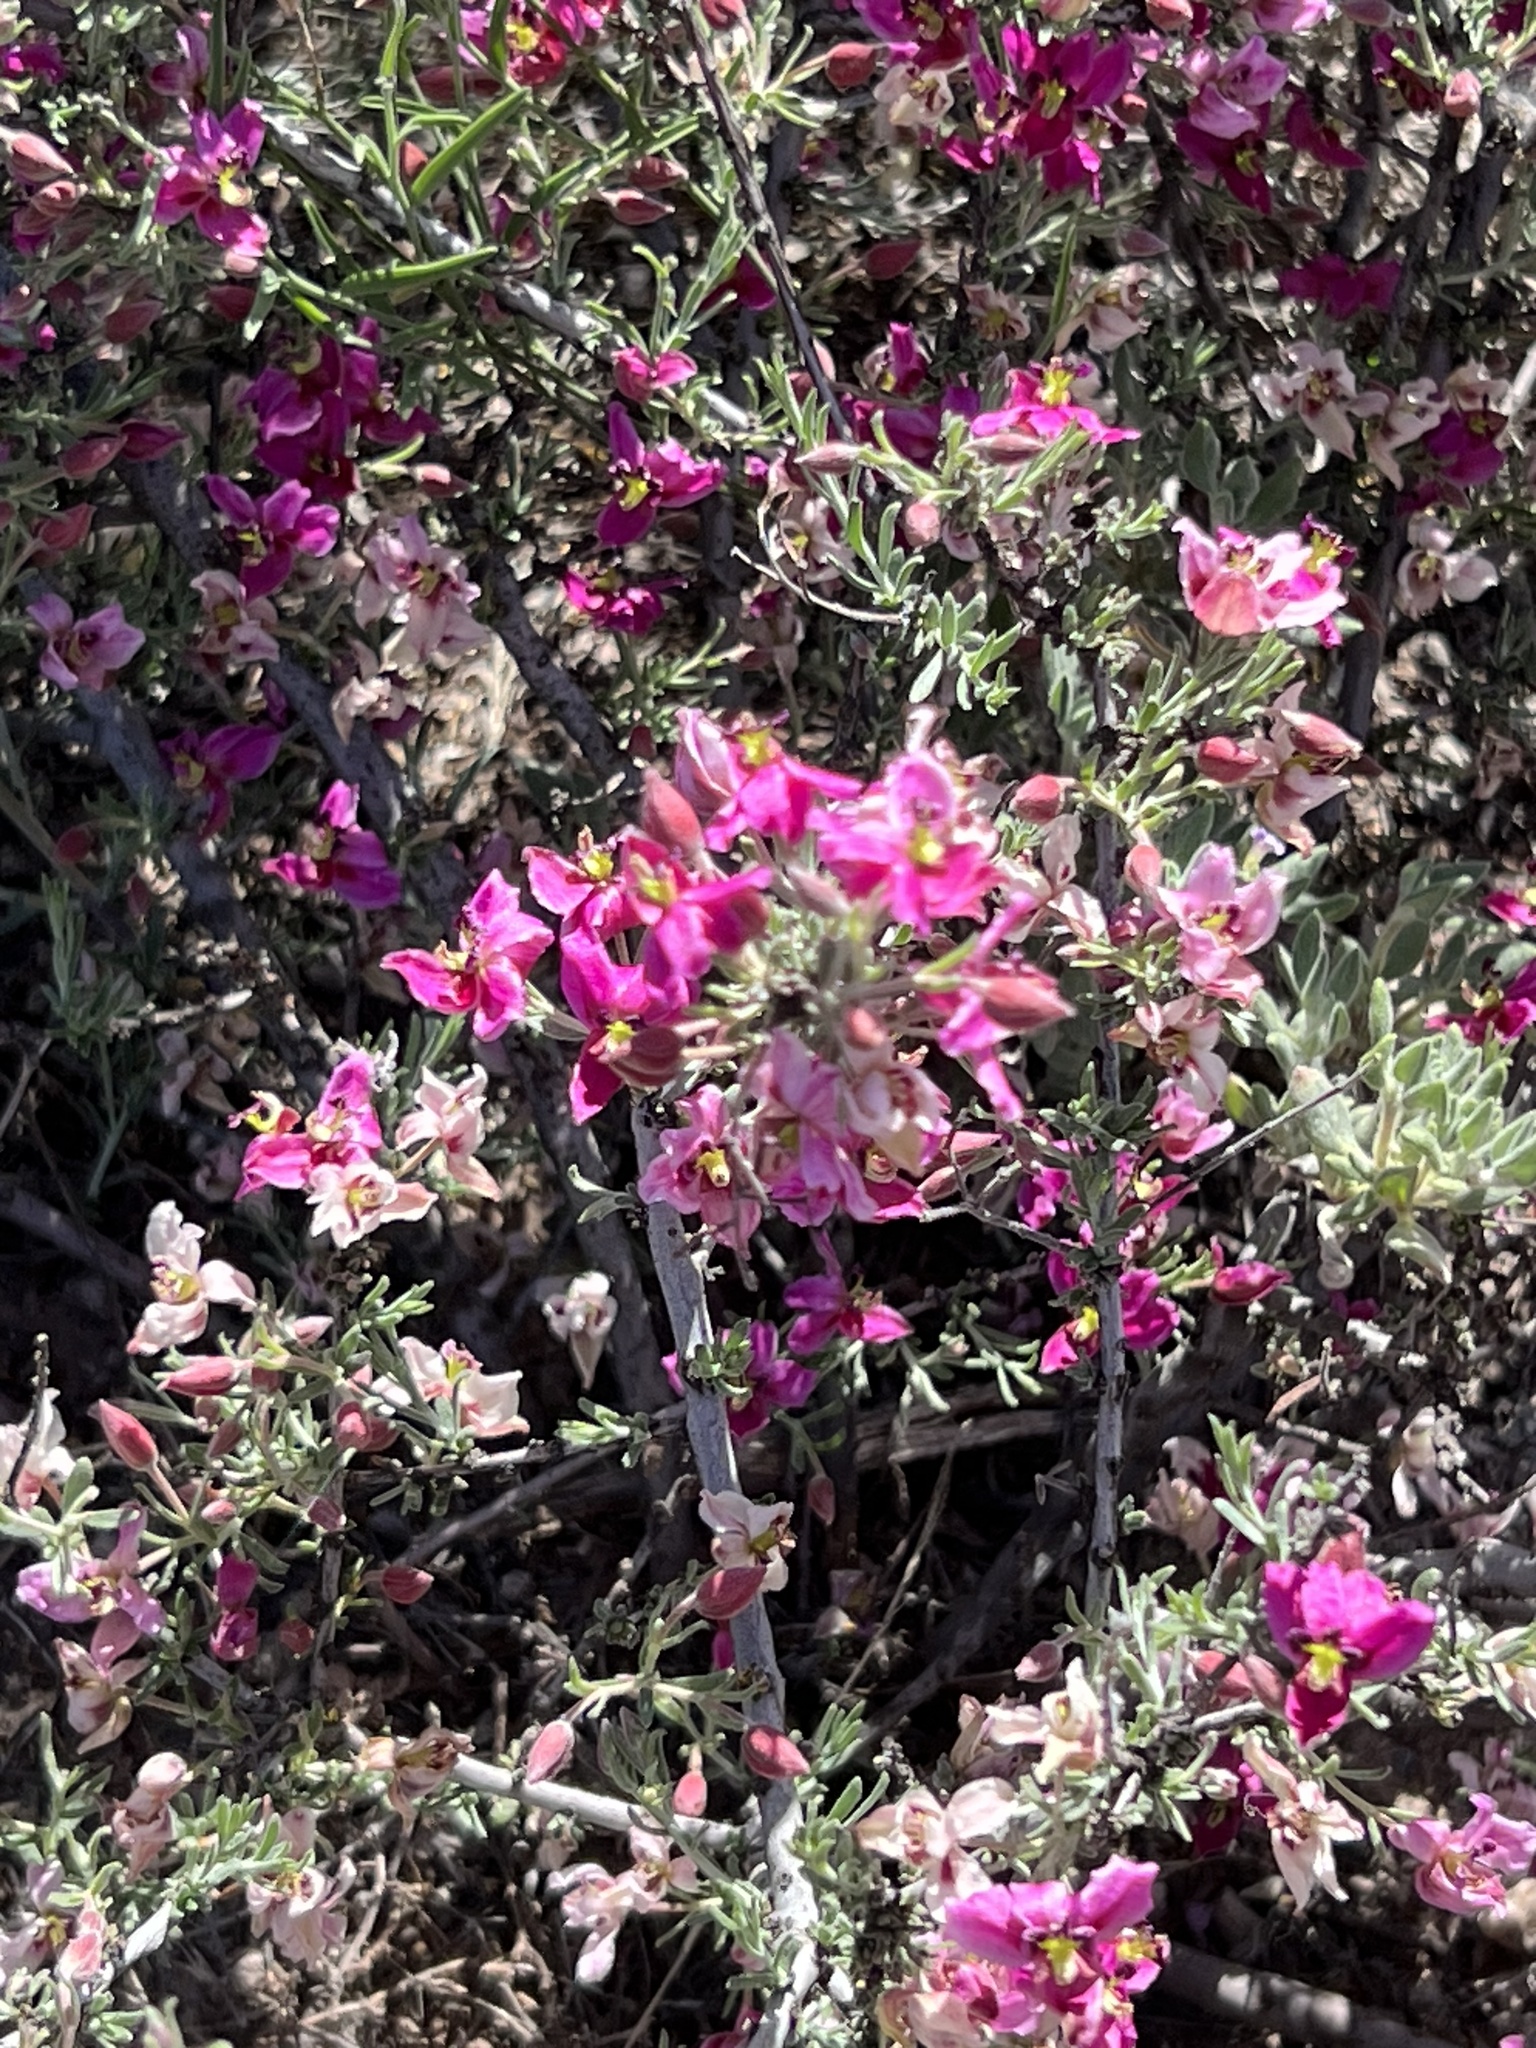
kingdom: Plantae
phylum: Tracheophyta
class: Magnoliopsida
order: Zygophyllales
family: Krameriaceae
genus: Krameria
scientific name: Krameria erecta
